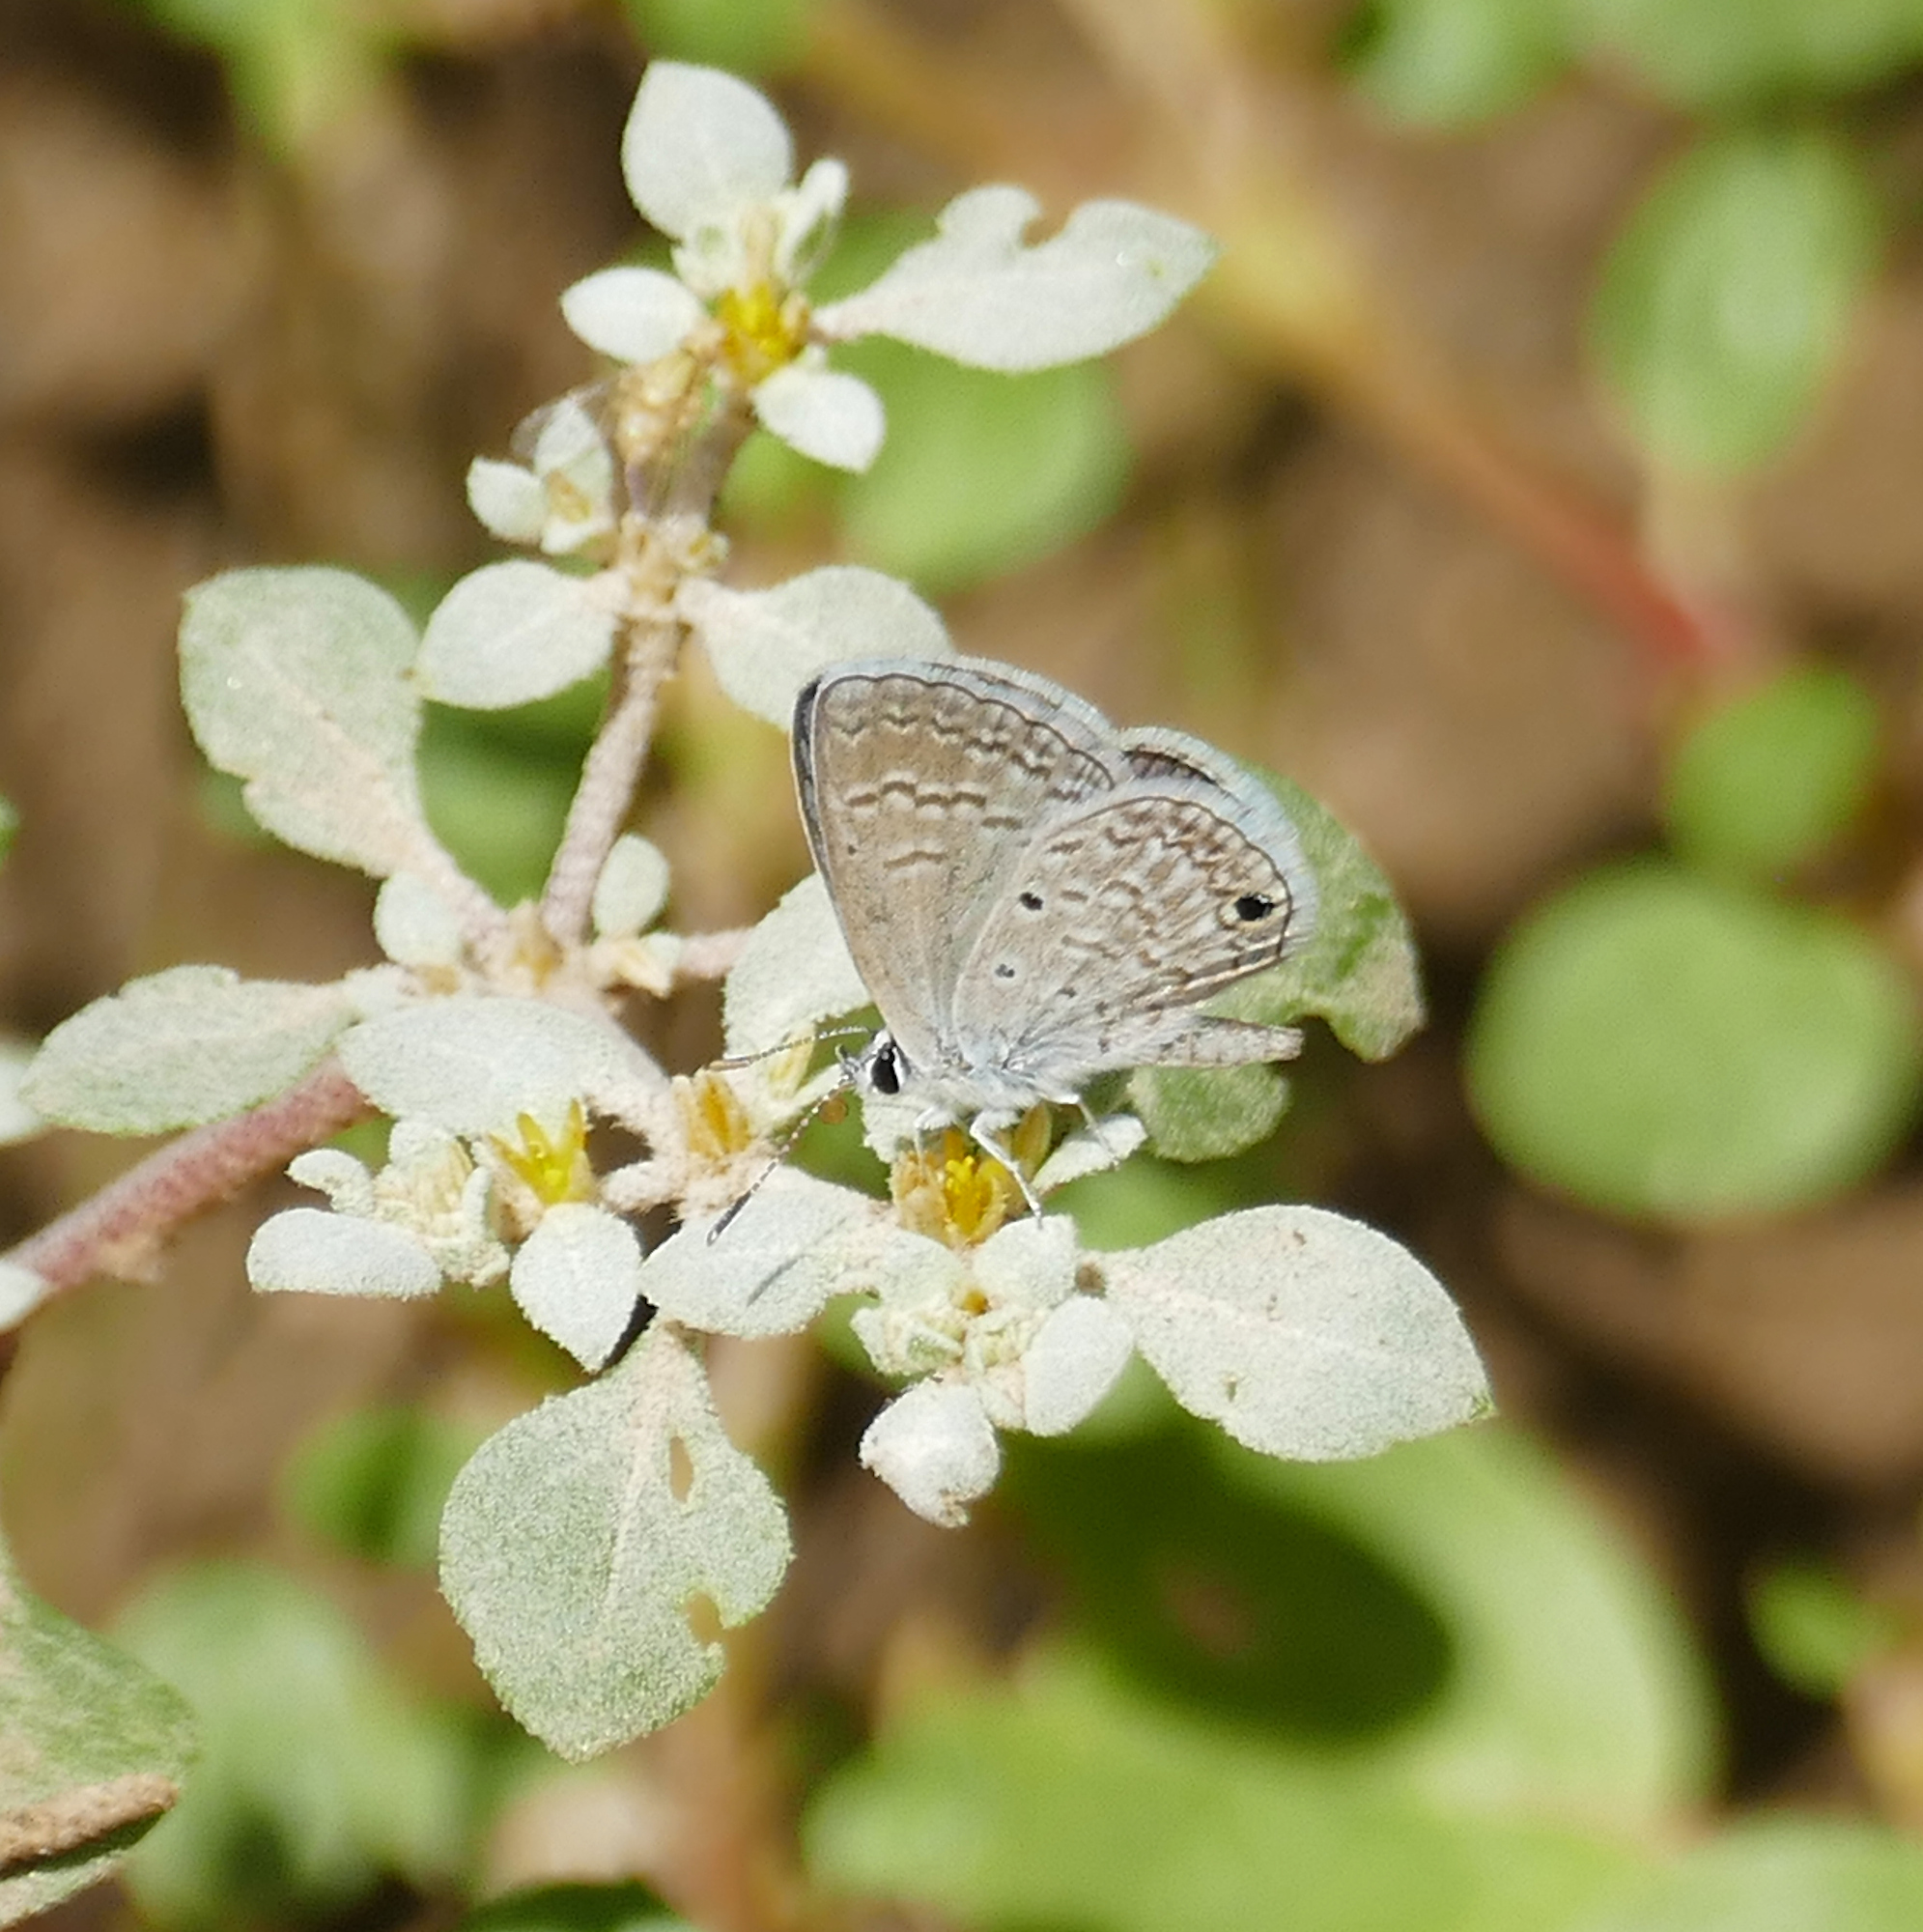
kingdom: Animalia
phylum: Arthropoda
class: Insecta
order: Lepidoptera
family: Lycaenidae
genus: Hemiargus
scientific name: Hemiargus ceraunus
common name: Ceraunus blue
